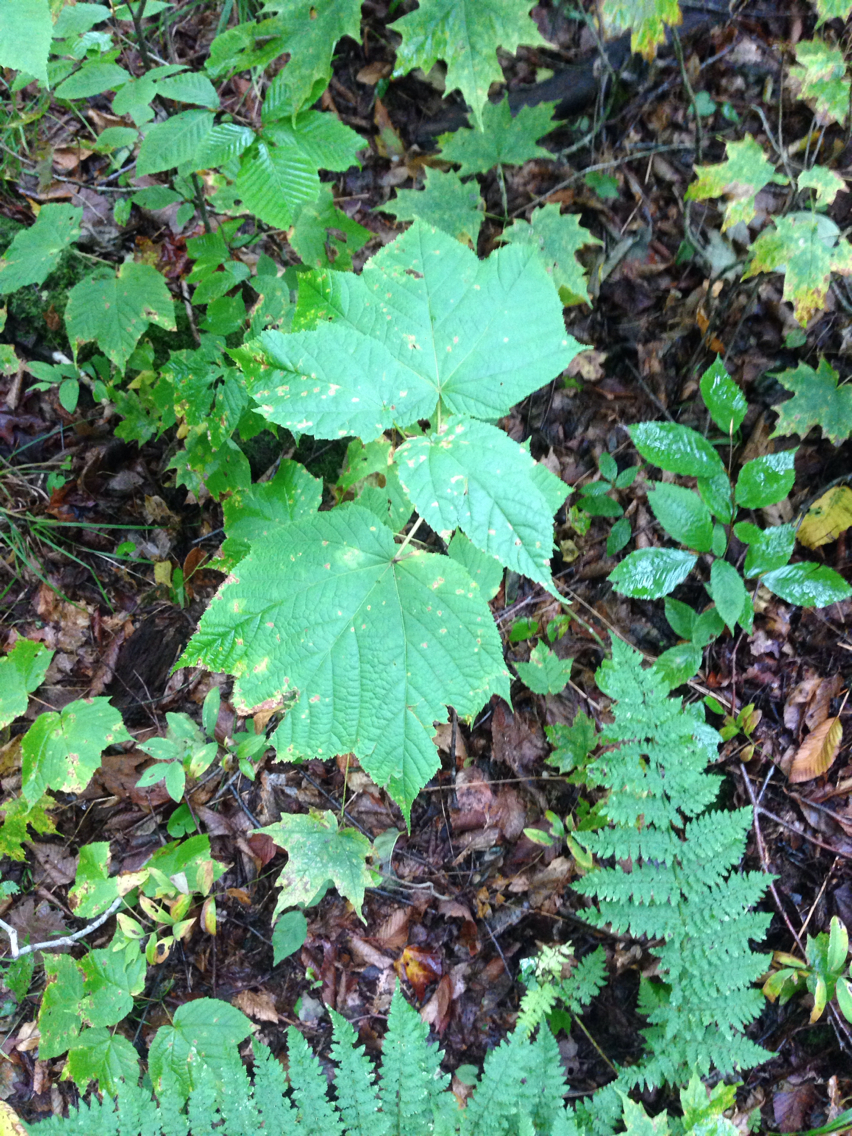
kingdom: Plantae
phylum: Tracheophyta
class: Magnoliopsida
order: Sapindales
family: Sapindaceae
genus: Acer
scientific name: Acer pensylvanicum
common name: Moosewood
